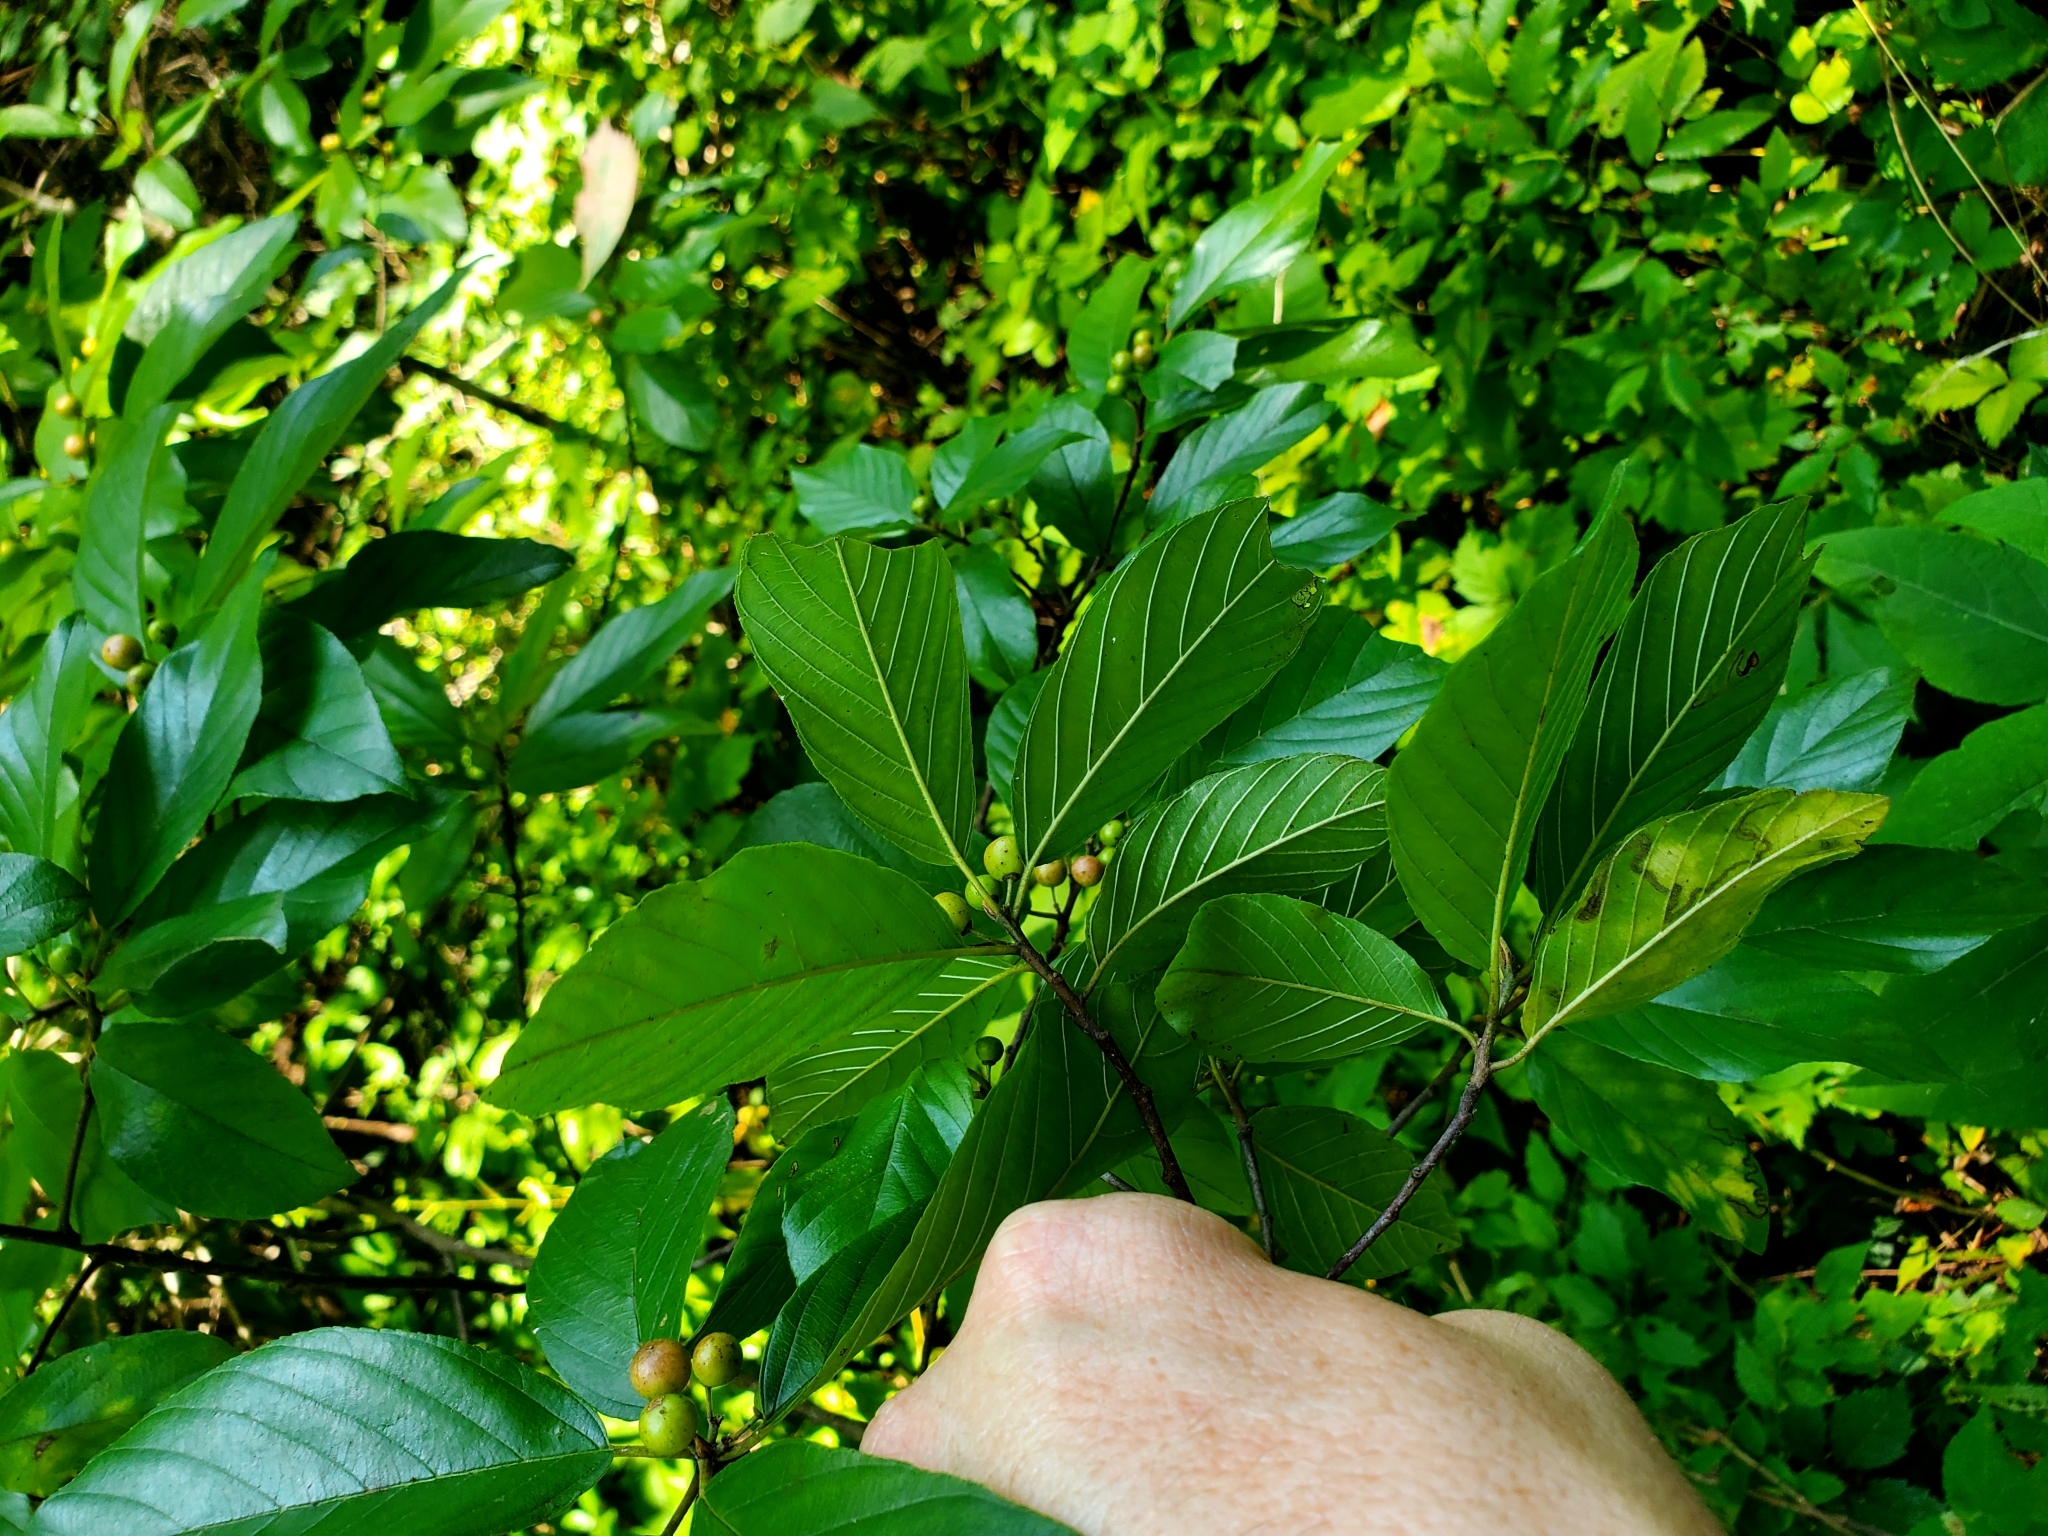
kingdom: Plantae
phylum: Tracheophyta
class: Magnoliopsida
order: Rosales
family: Rhamnaceae
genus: Frangula
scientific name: Frangula caroliniana
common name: Carolina buckthorn
